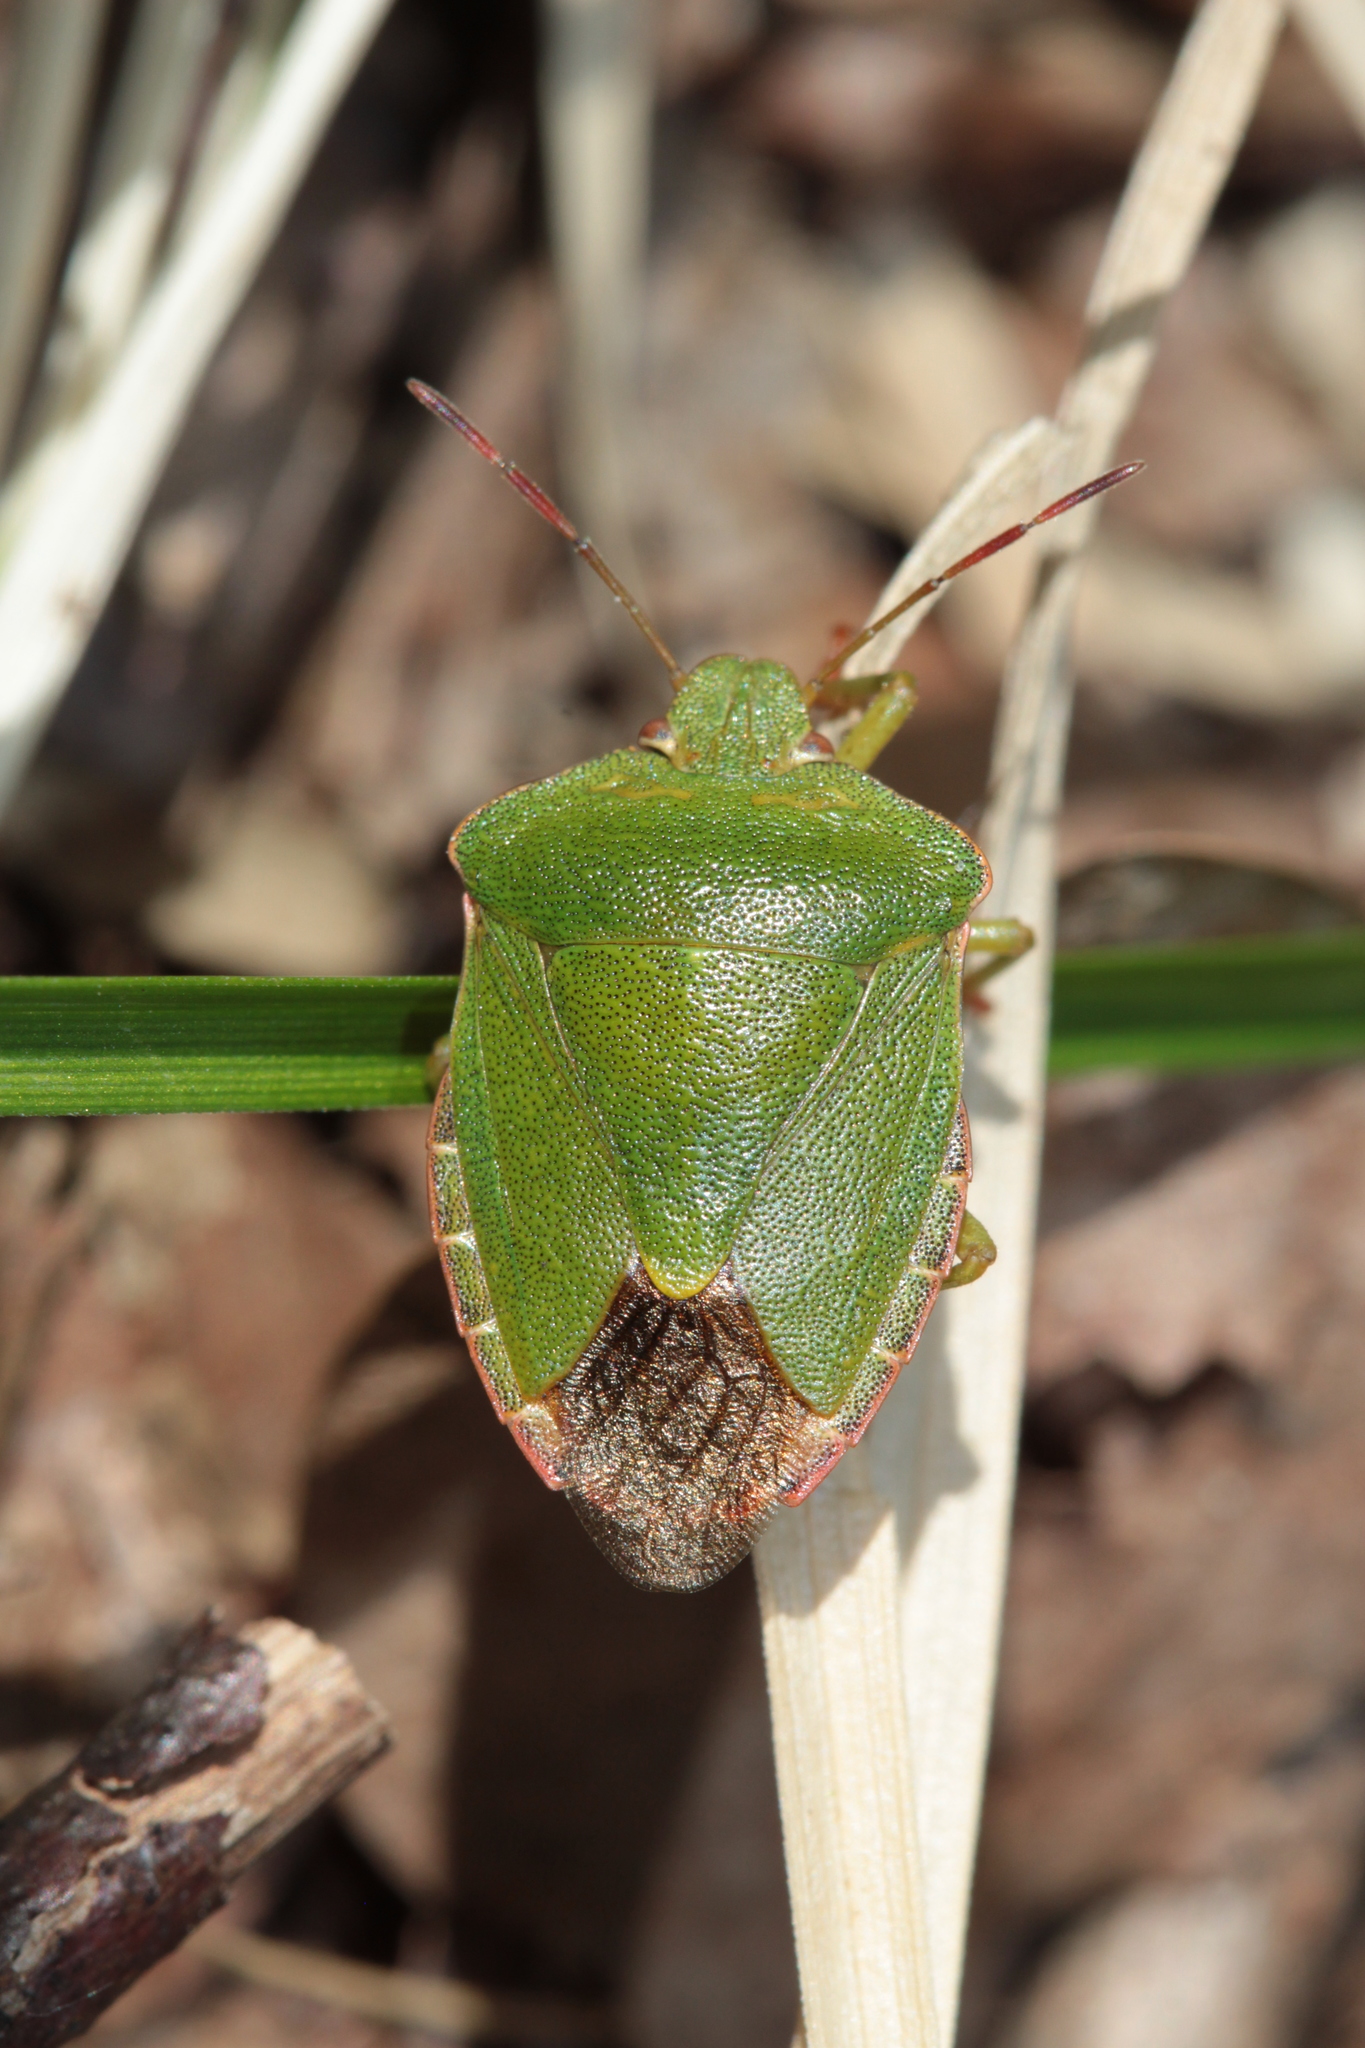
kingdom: Animalia
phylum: Arthropoda
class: Insecta
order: Hemiptera
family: Pentatomidae
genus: Palomena
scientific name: Palomena prasina
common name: Green shieldbug
